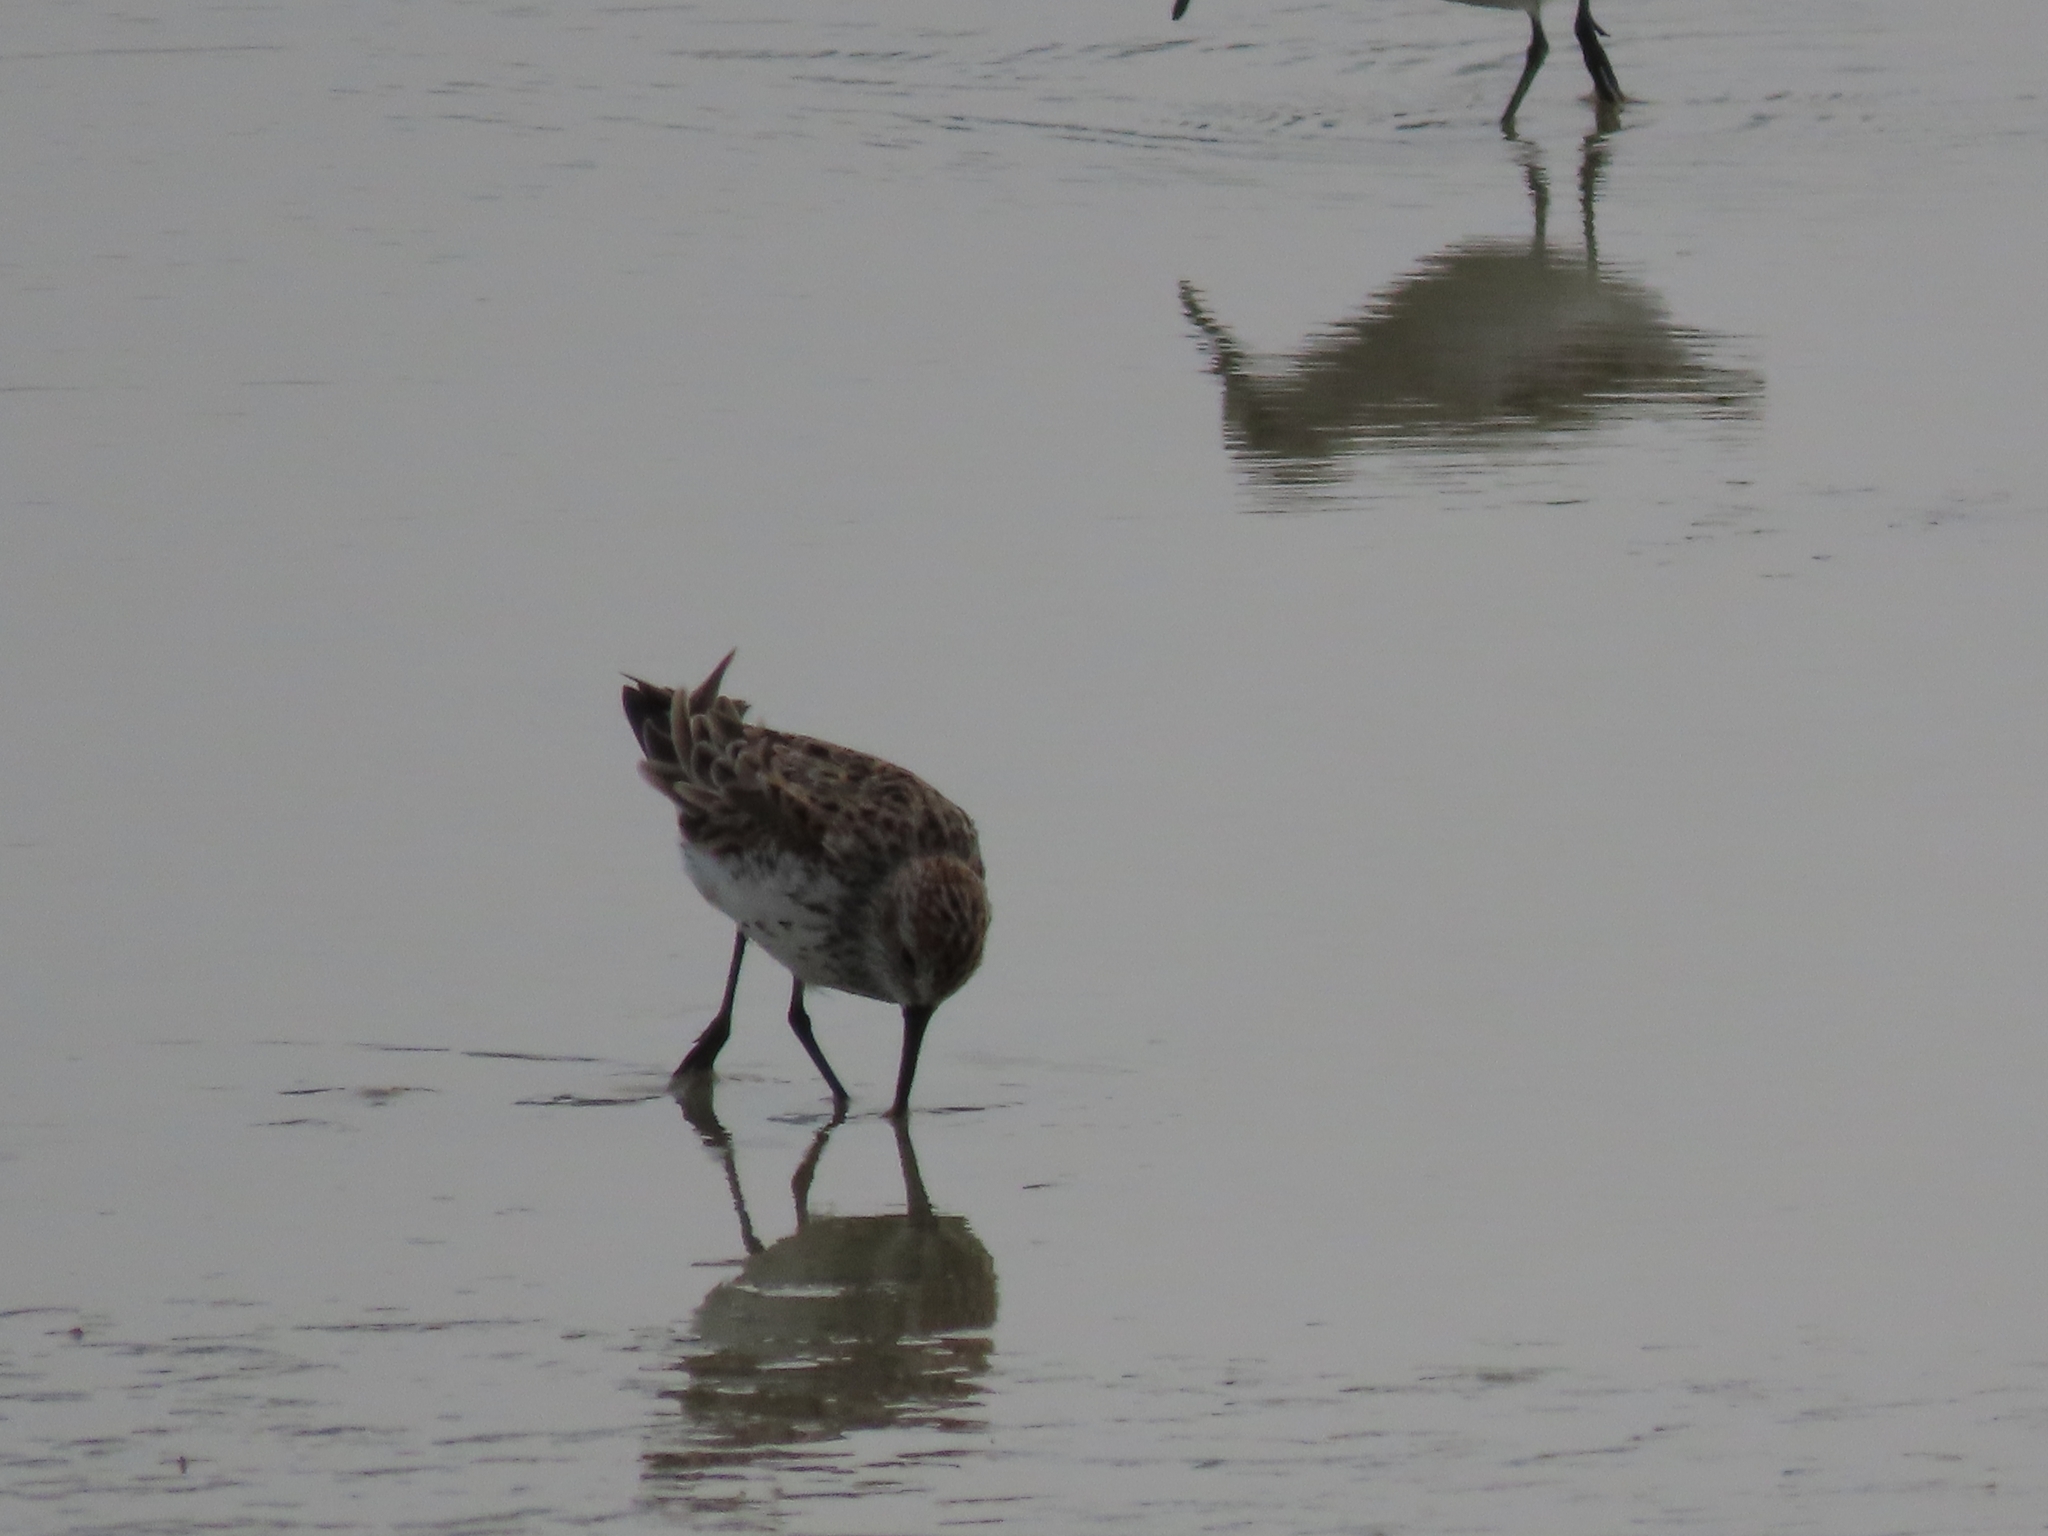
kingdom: Animalia
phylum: Chordata
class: Aves
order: Charadriiformes
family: Scolopacidae
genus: Calidris
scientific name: Calidris mauri
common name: Western sandpiper
